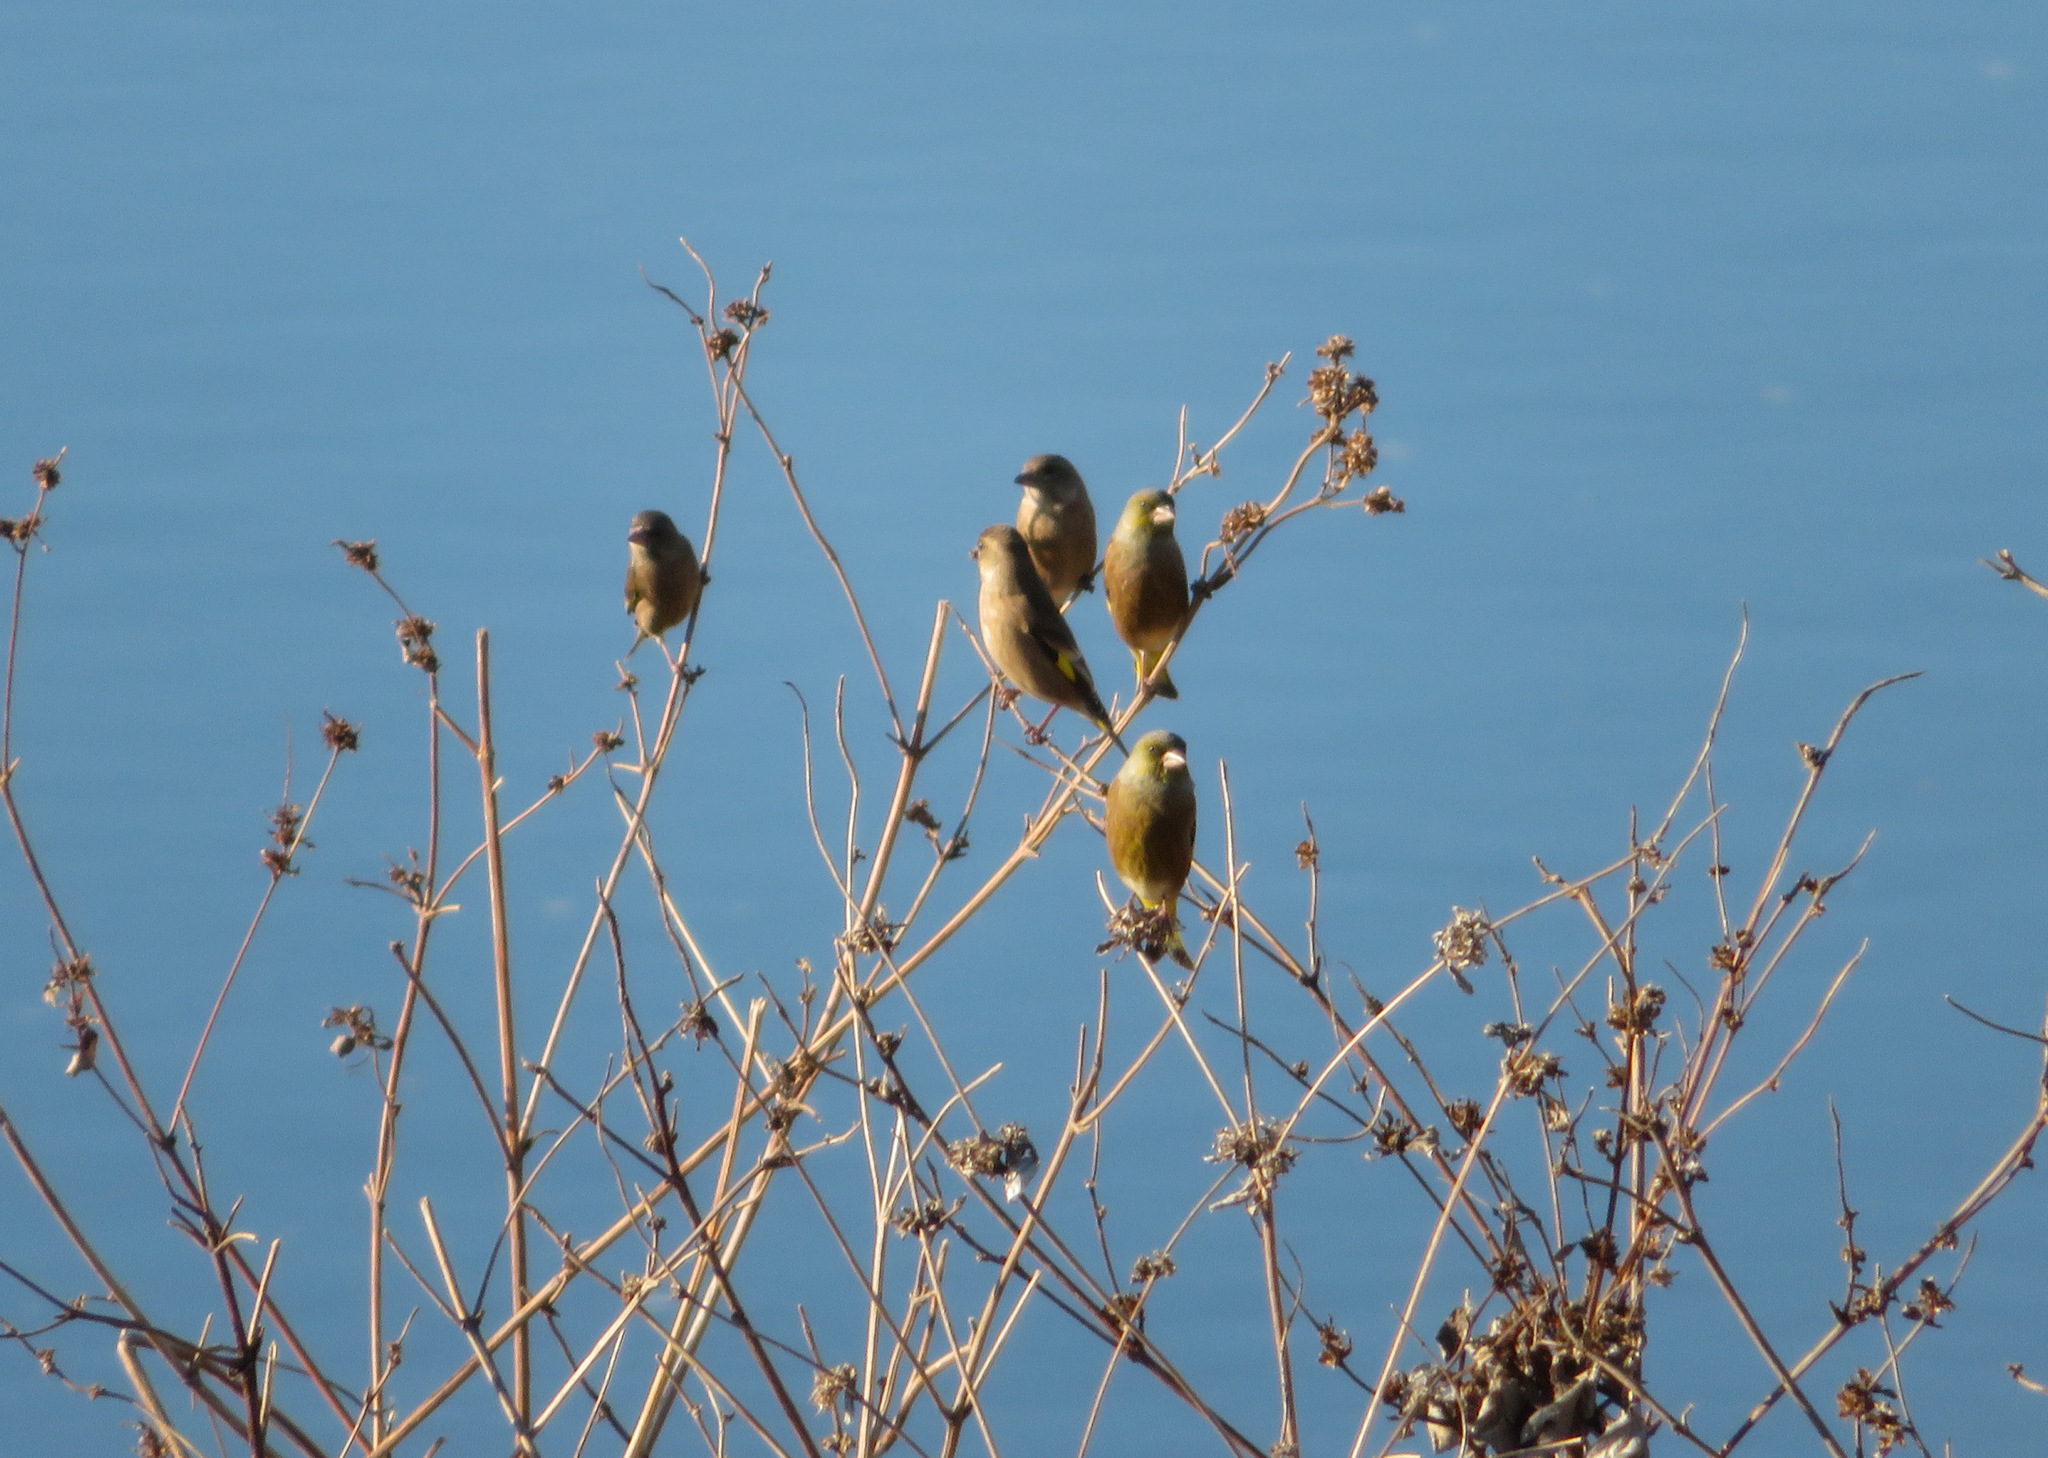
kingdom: Plantae
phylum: Tracheophyta
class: Liliopsida
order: Poales
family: Poaceae
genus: Chloris
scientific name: Chloris sinica
